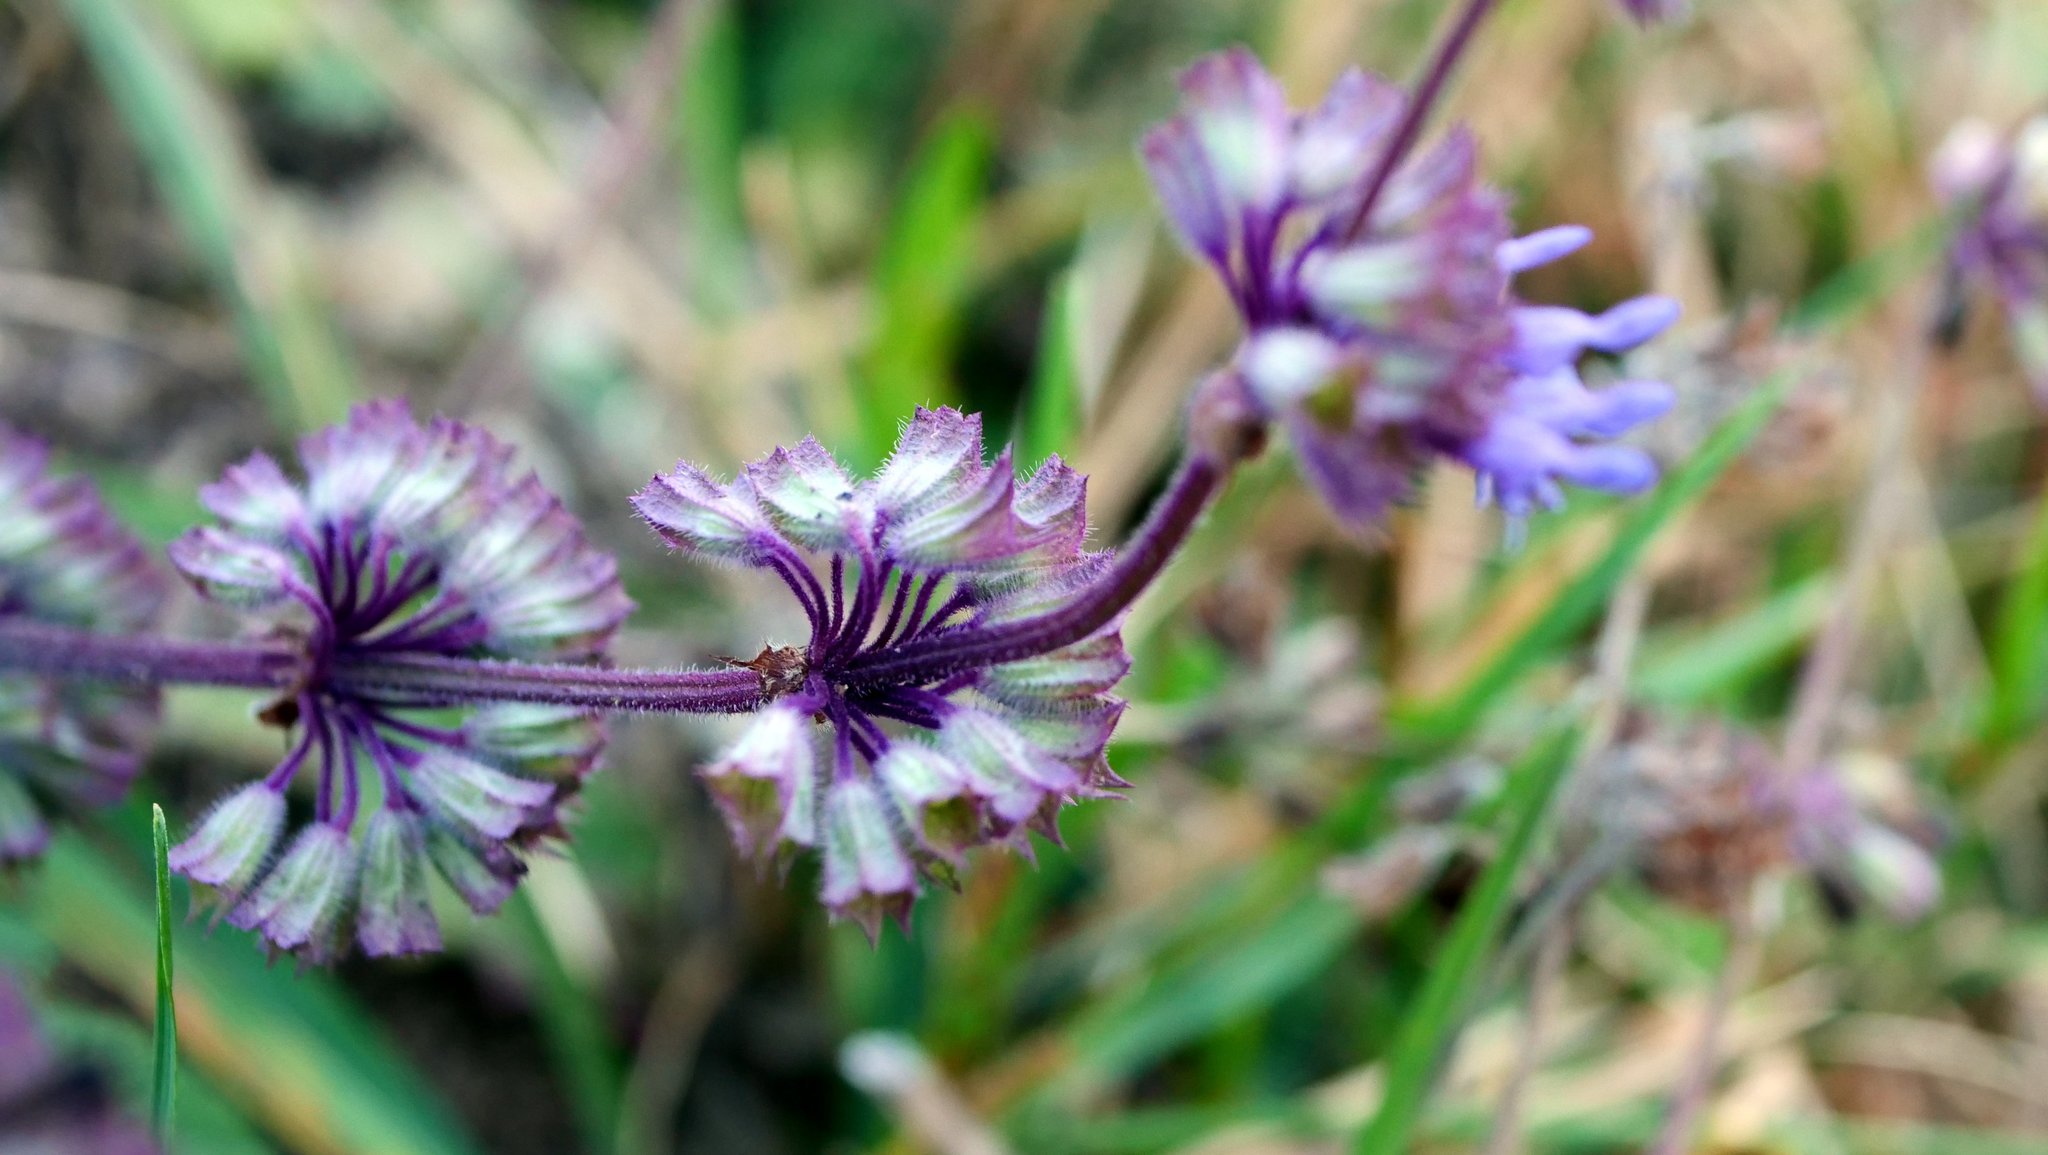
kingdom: Plantae
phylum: Tracheophyta
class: Magnoliopsida
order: Lamiales
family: Lamiaceae
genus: Salvia
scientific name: Salvia verticillata
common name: Whorled clary
